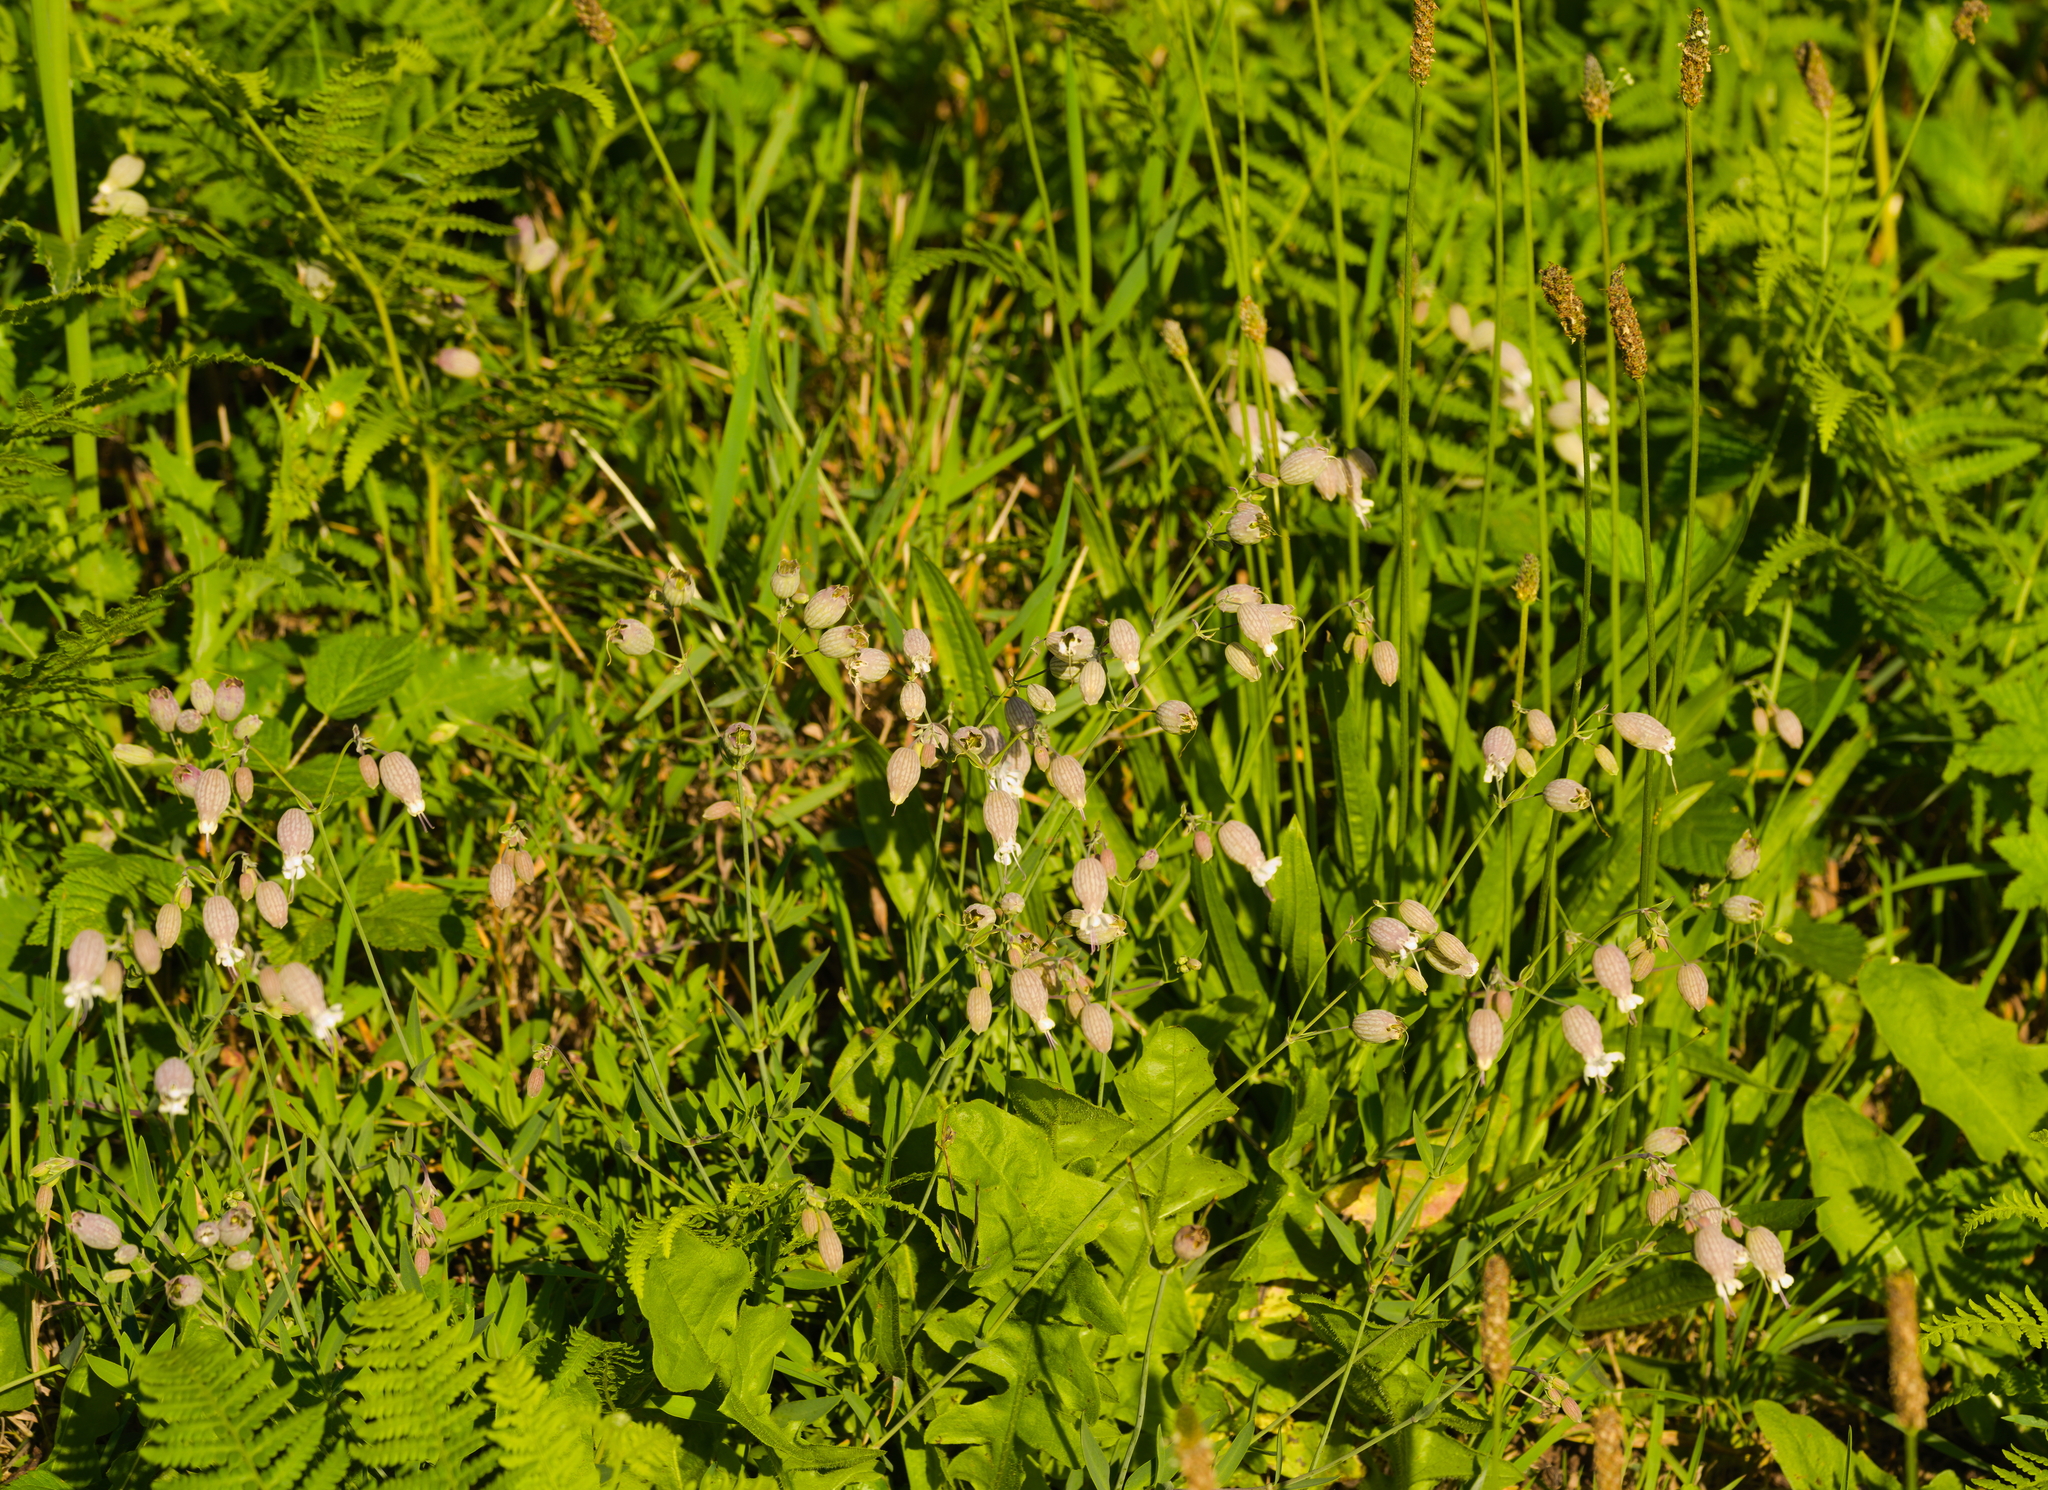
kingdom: Plantae
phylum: Tracheophyta
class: Magnoliopsida
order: Caryophyllales
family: Caryophyllaceae
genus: Silene
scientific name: Silene vulgaris
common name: Bladder campion
